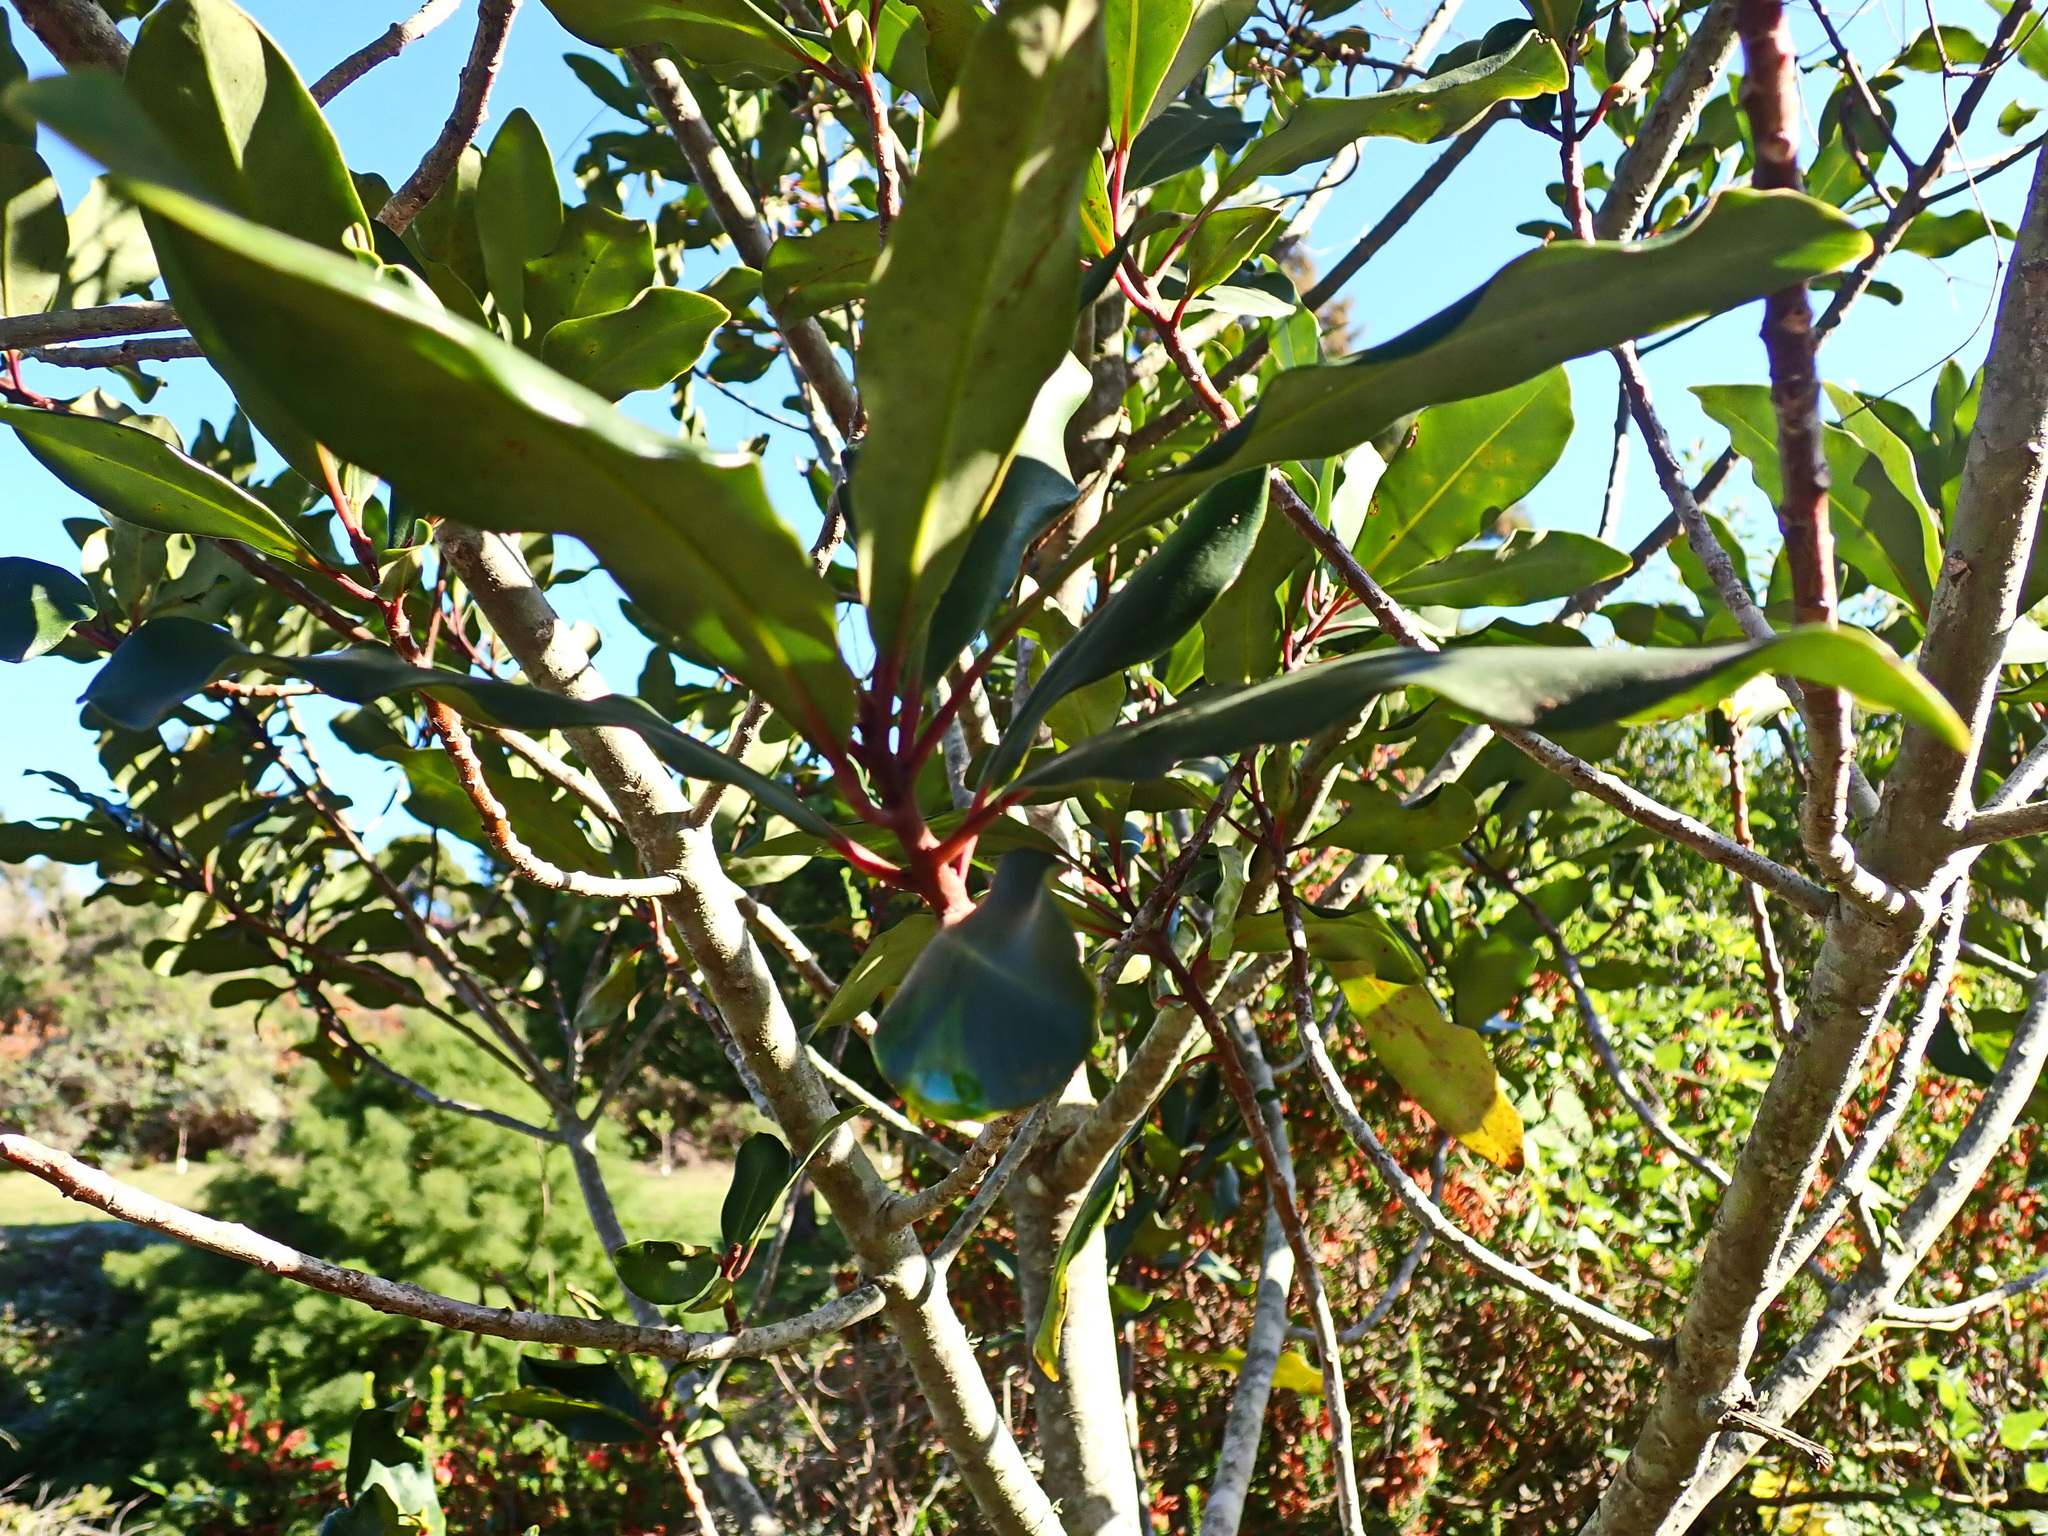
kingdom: Plantae
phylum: Tracheophyta
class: Magnoliopsida
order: Ericales
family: Primulaceae
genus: Myrsine
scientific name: Myrsine melanophloeos
